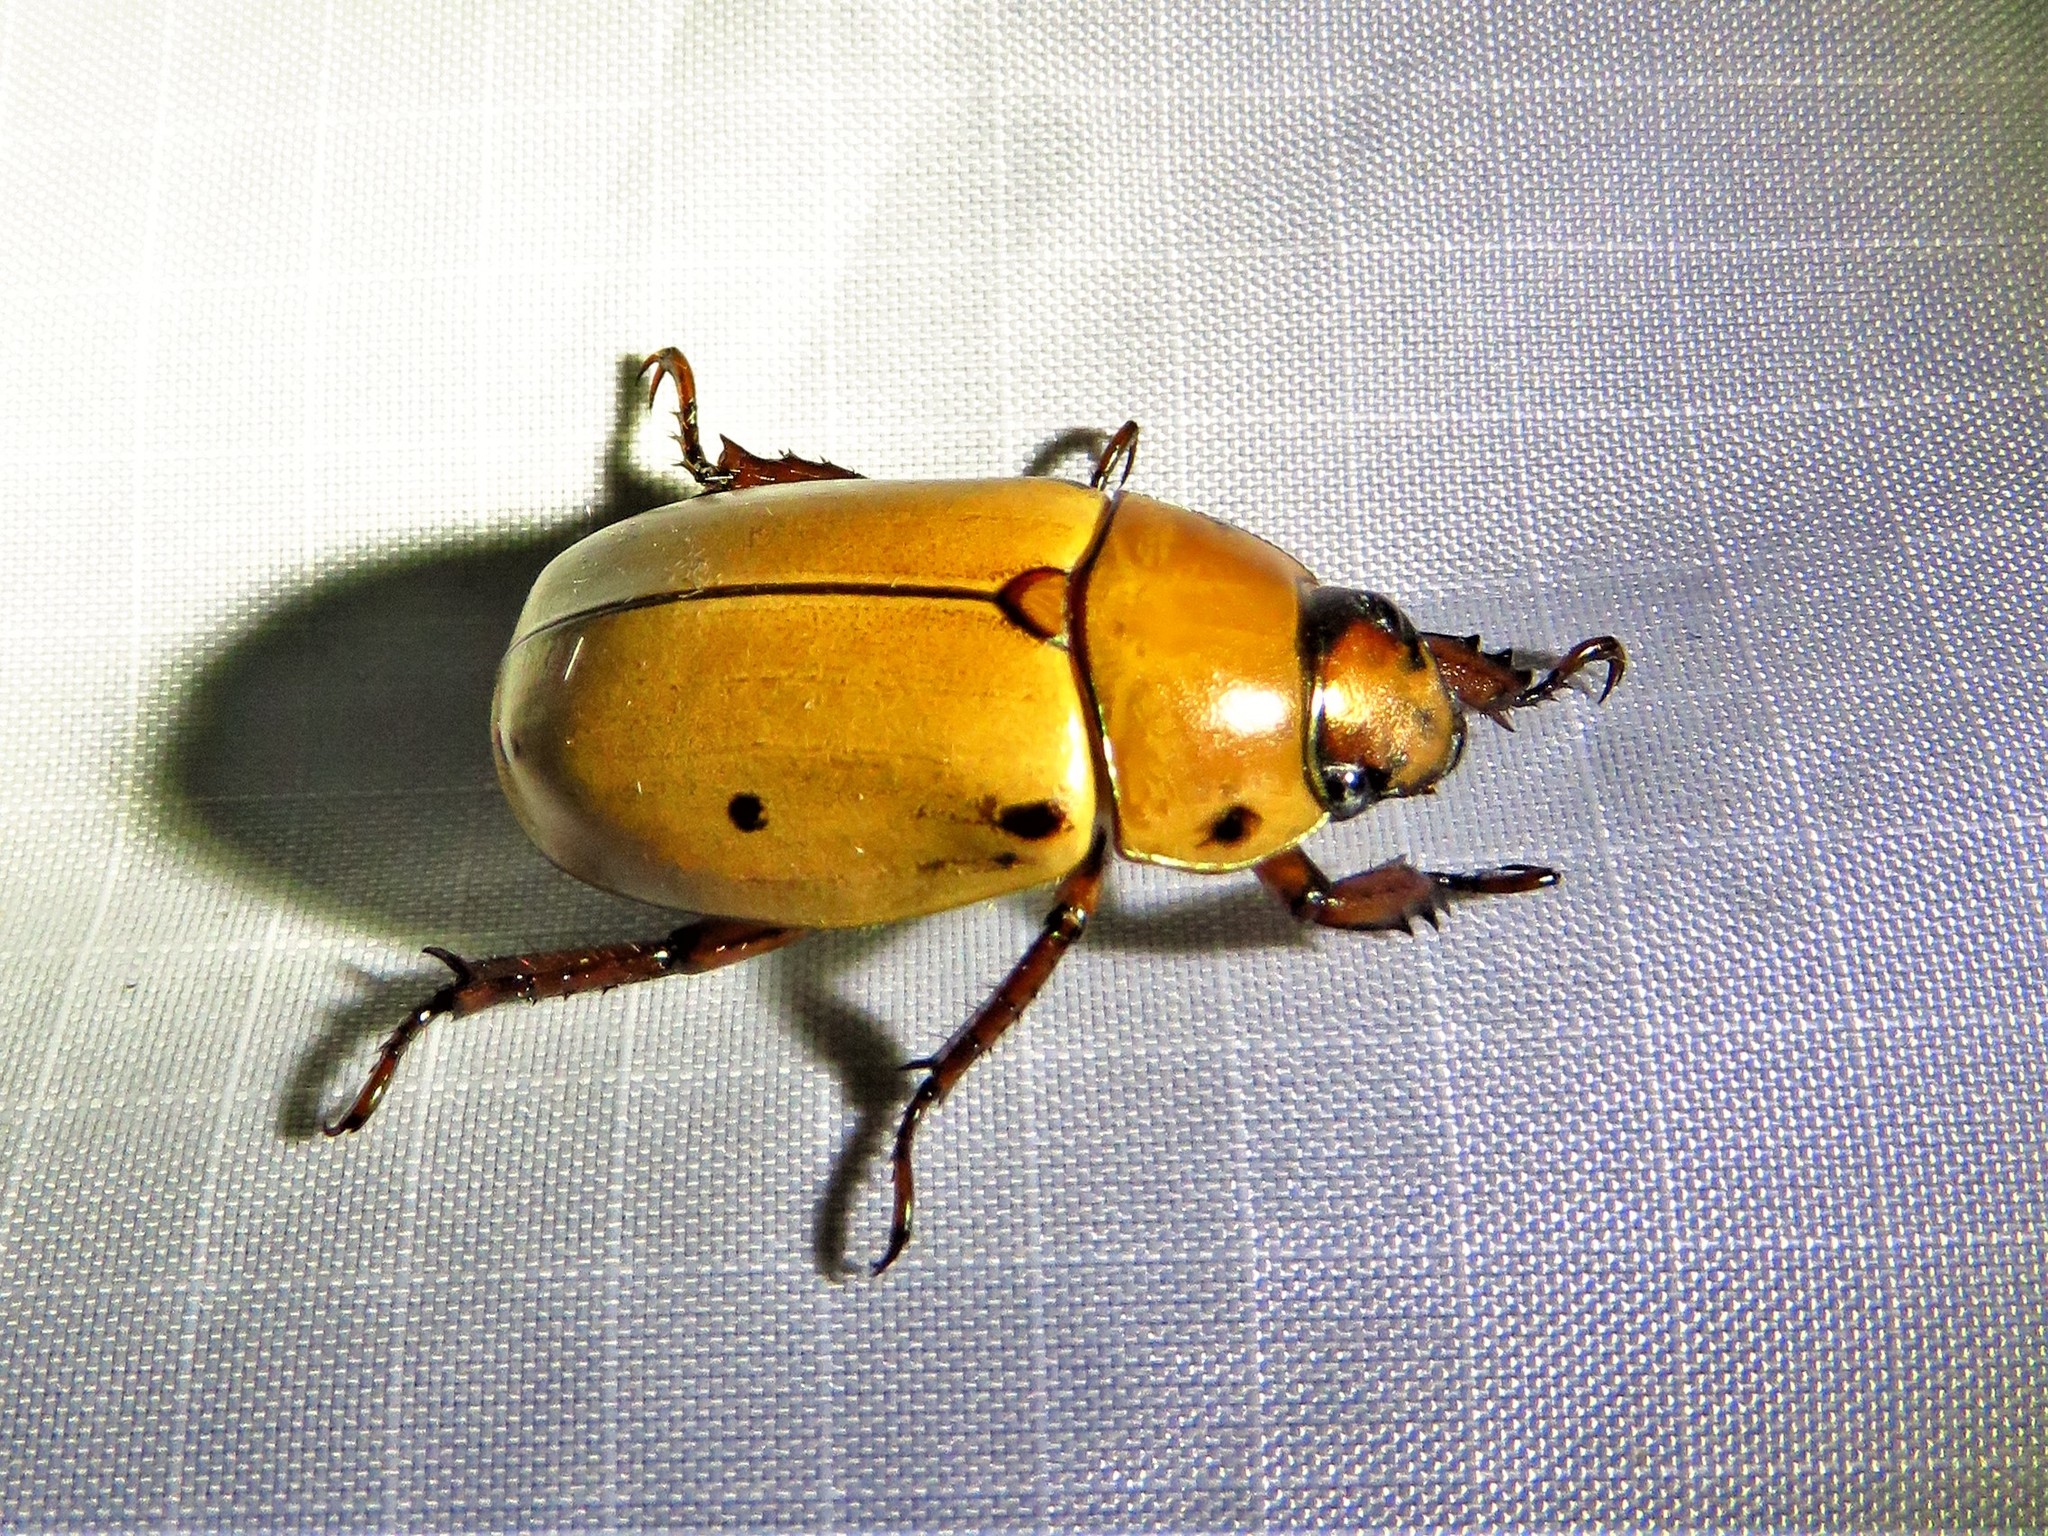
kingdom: Animalia
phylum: Arthropoda
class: Insecta
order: Coleoptera
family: Scarabaeidae
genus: Pelidnota
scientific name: Pelidnota punctata
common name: Grapevine beetle
